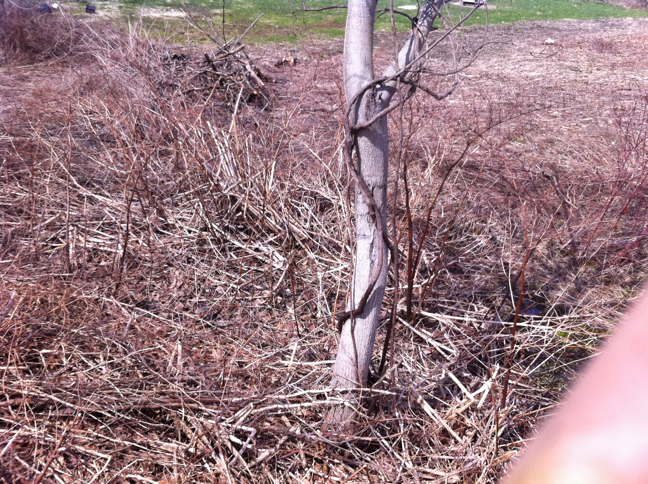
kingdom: Plantae
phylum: Tracheophyta
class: Magnoliopsida
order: Caryophyllales
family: Polygonaceae
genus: Reynoutria
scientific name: Reynoutria japonica
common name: Japanese knotweed
